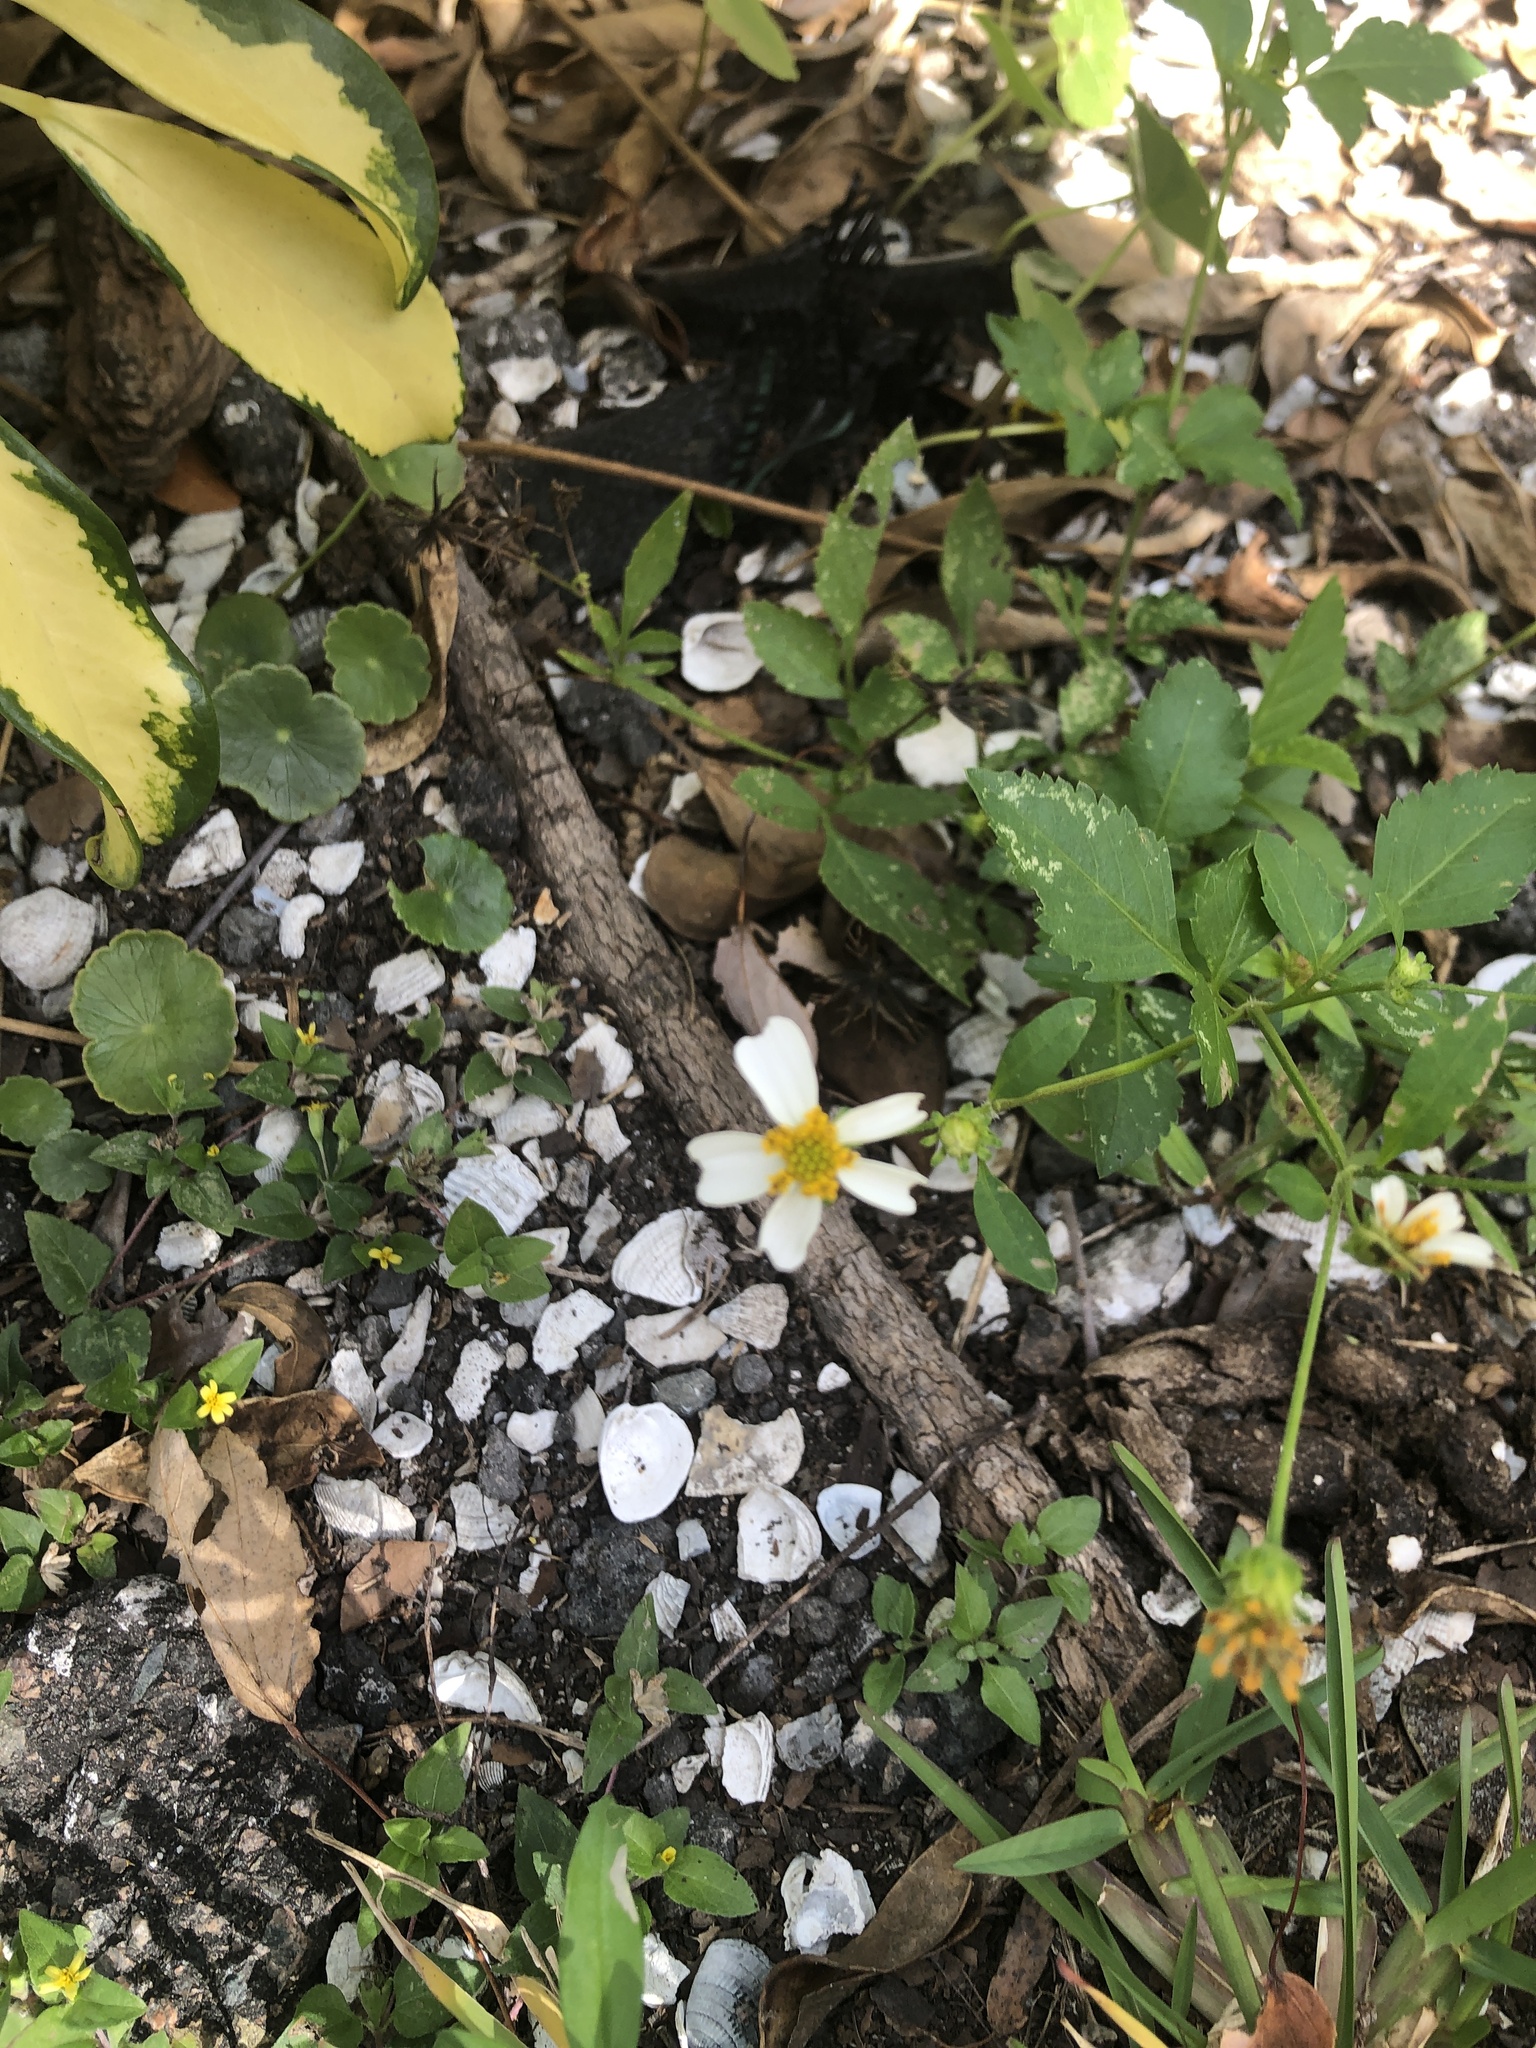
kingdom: Plantae
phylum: Tracheophyta
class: Magnoliopsida
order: Asterales
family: Asteraceae
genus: Bidens
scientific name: Bidens alba
